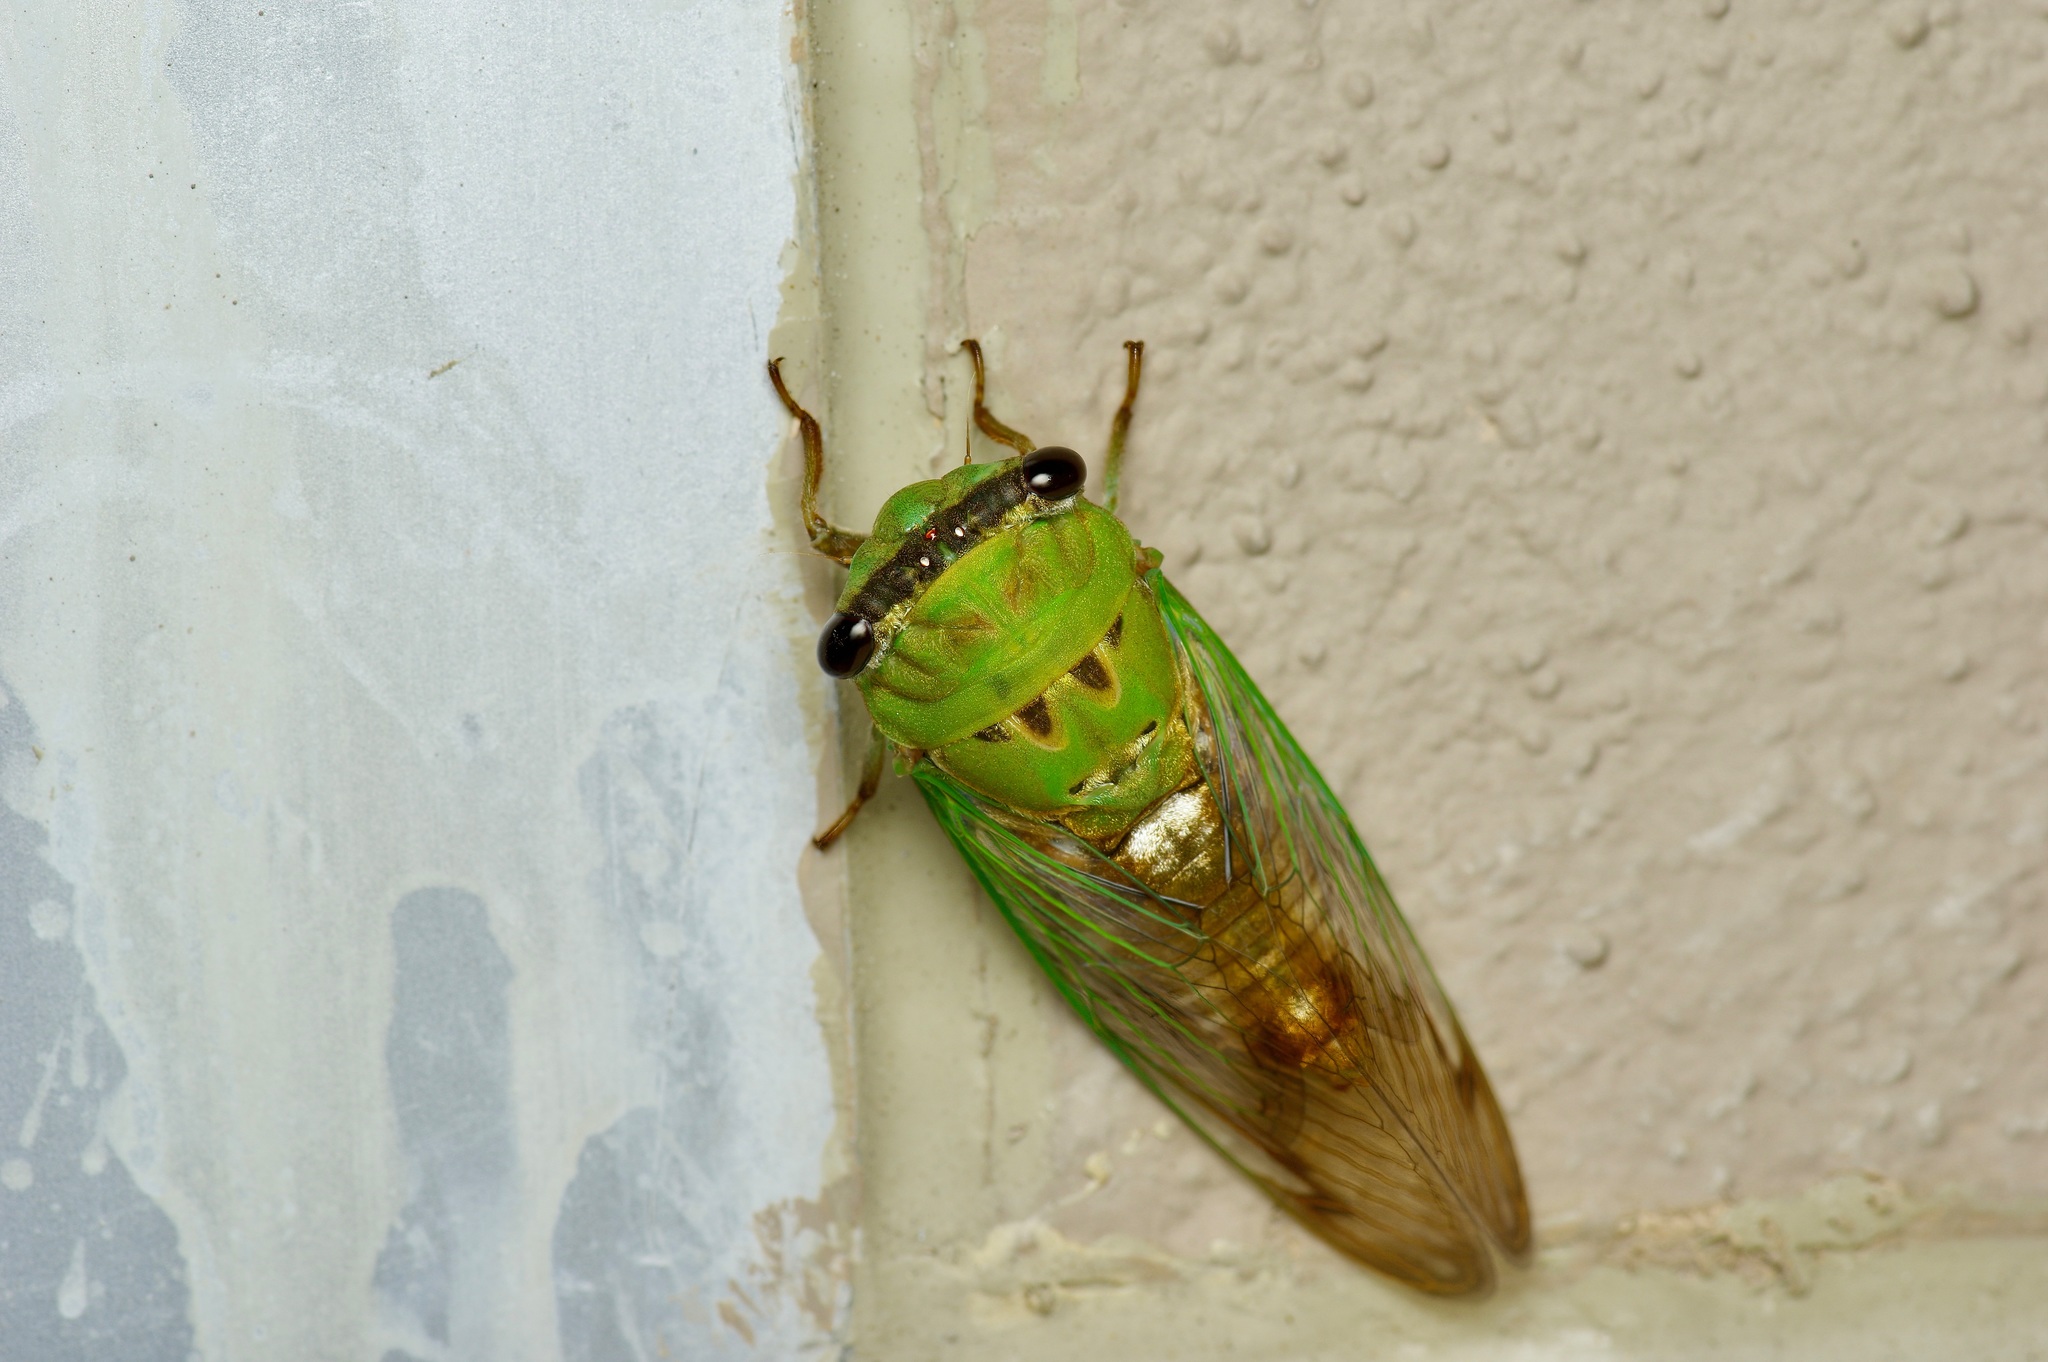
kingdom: Animalia
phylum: Arthropoda
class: Insecta
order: Hemiptera
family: Cicadidae
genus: Neotibicen
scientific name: Neotibicen superbus
